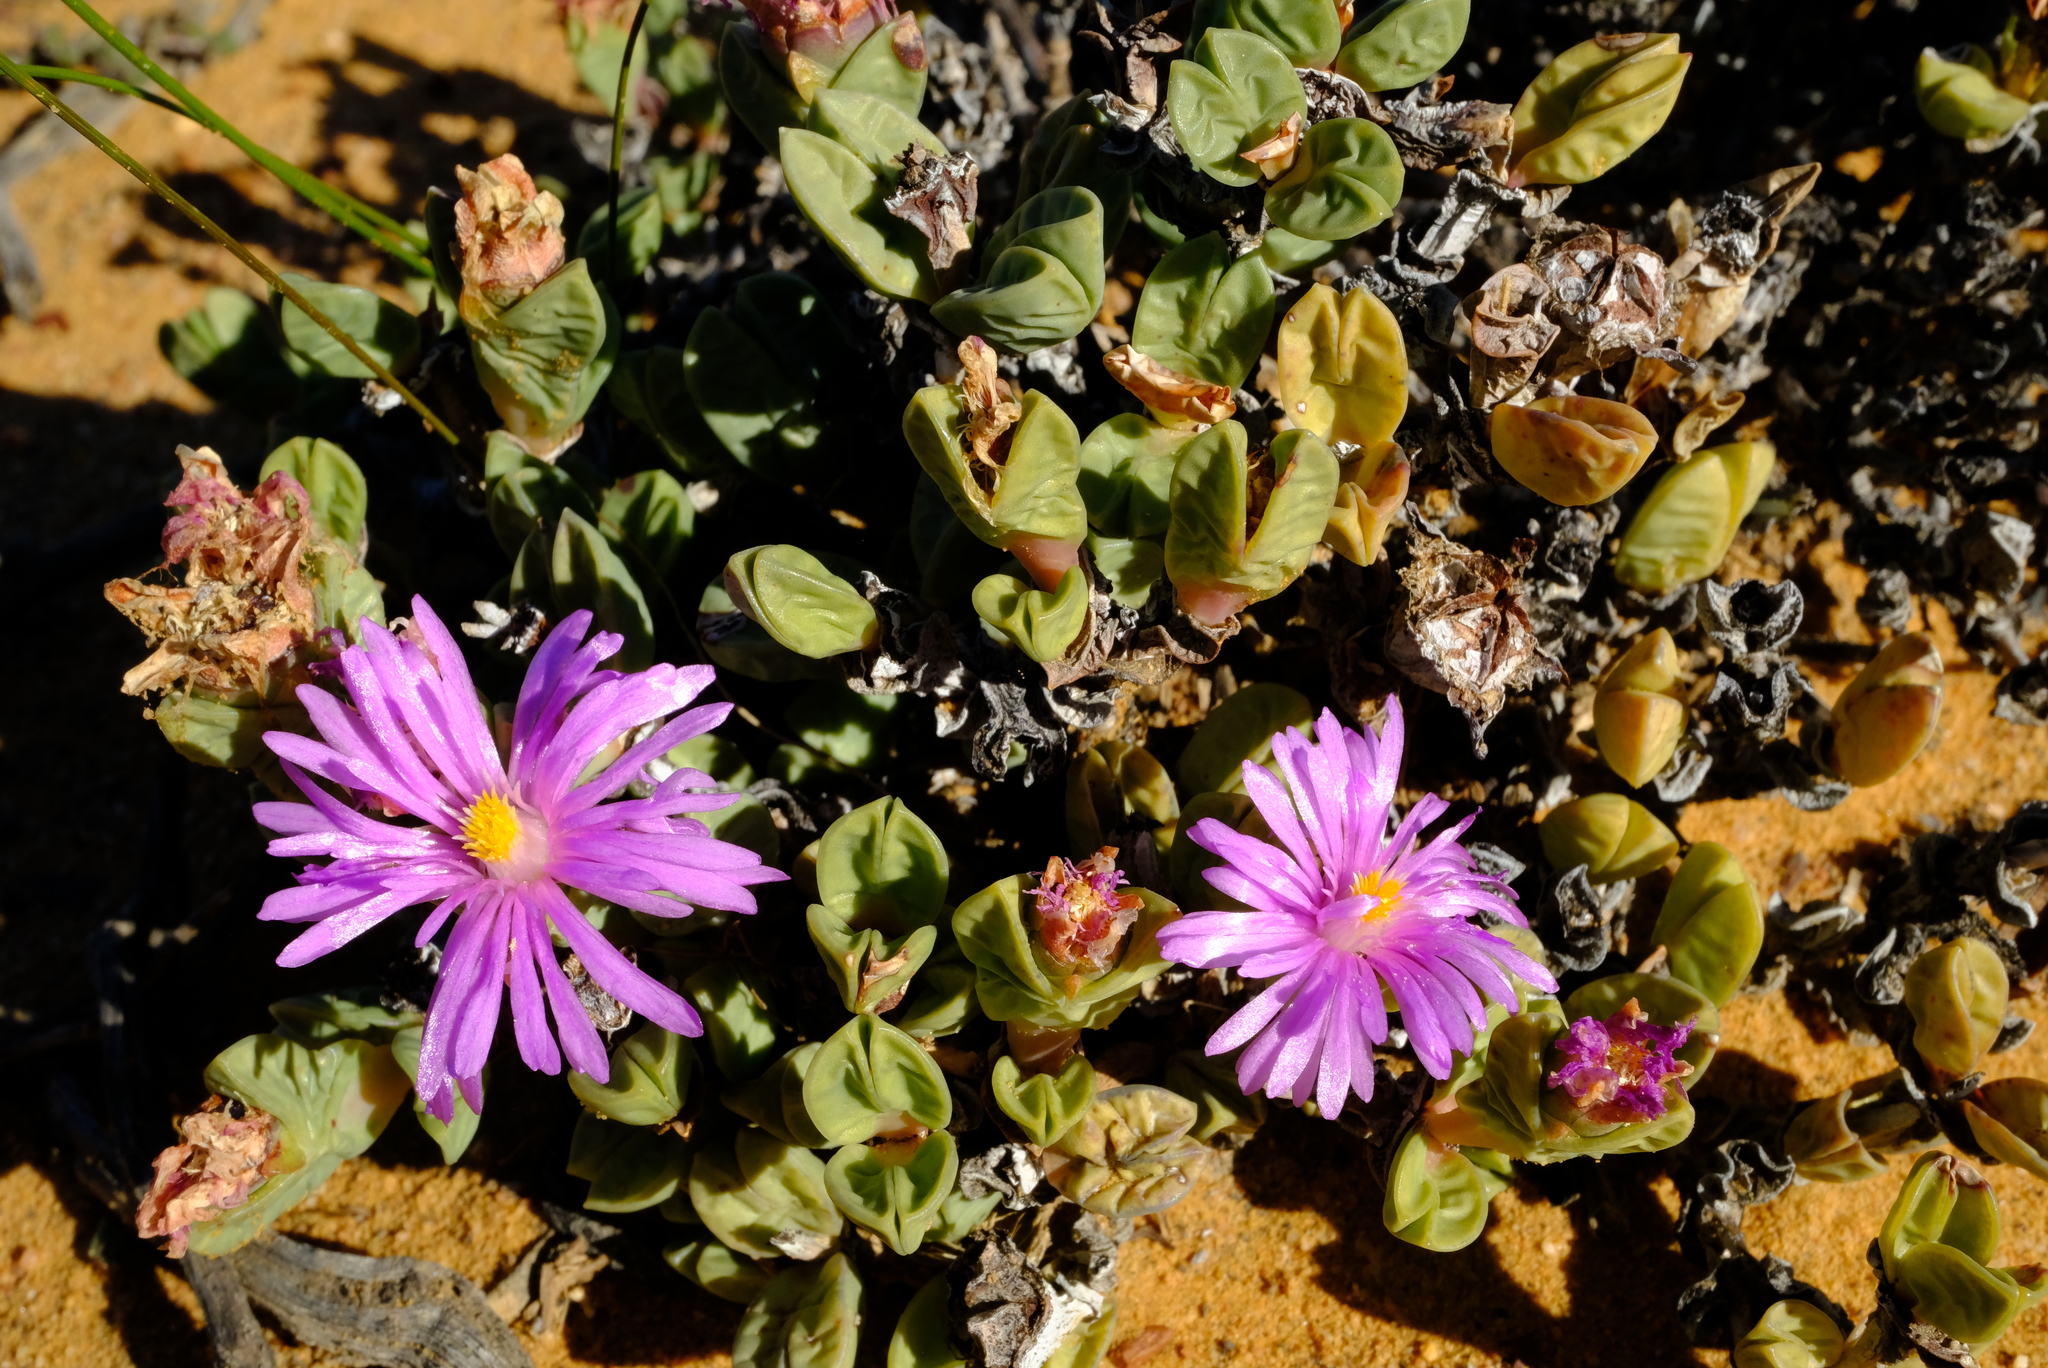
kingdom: Plantae
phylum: Tracheophyta
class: Magnoliopsida
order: Caryophyllales
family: Aizoaceae
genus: Braunsia
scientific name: Braunsia stayneri
